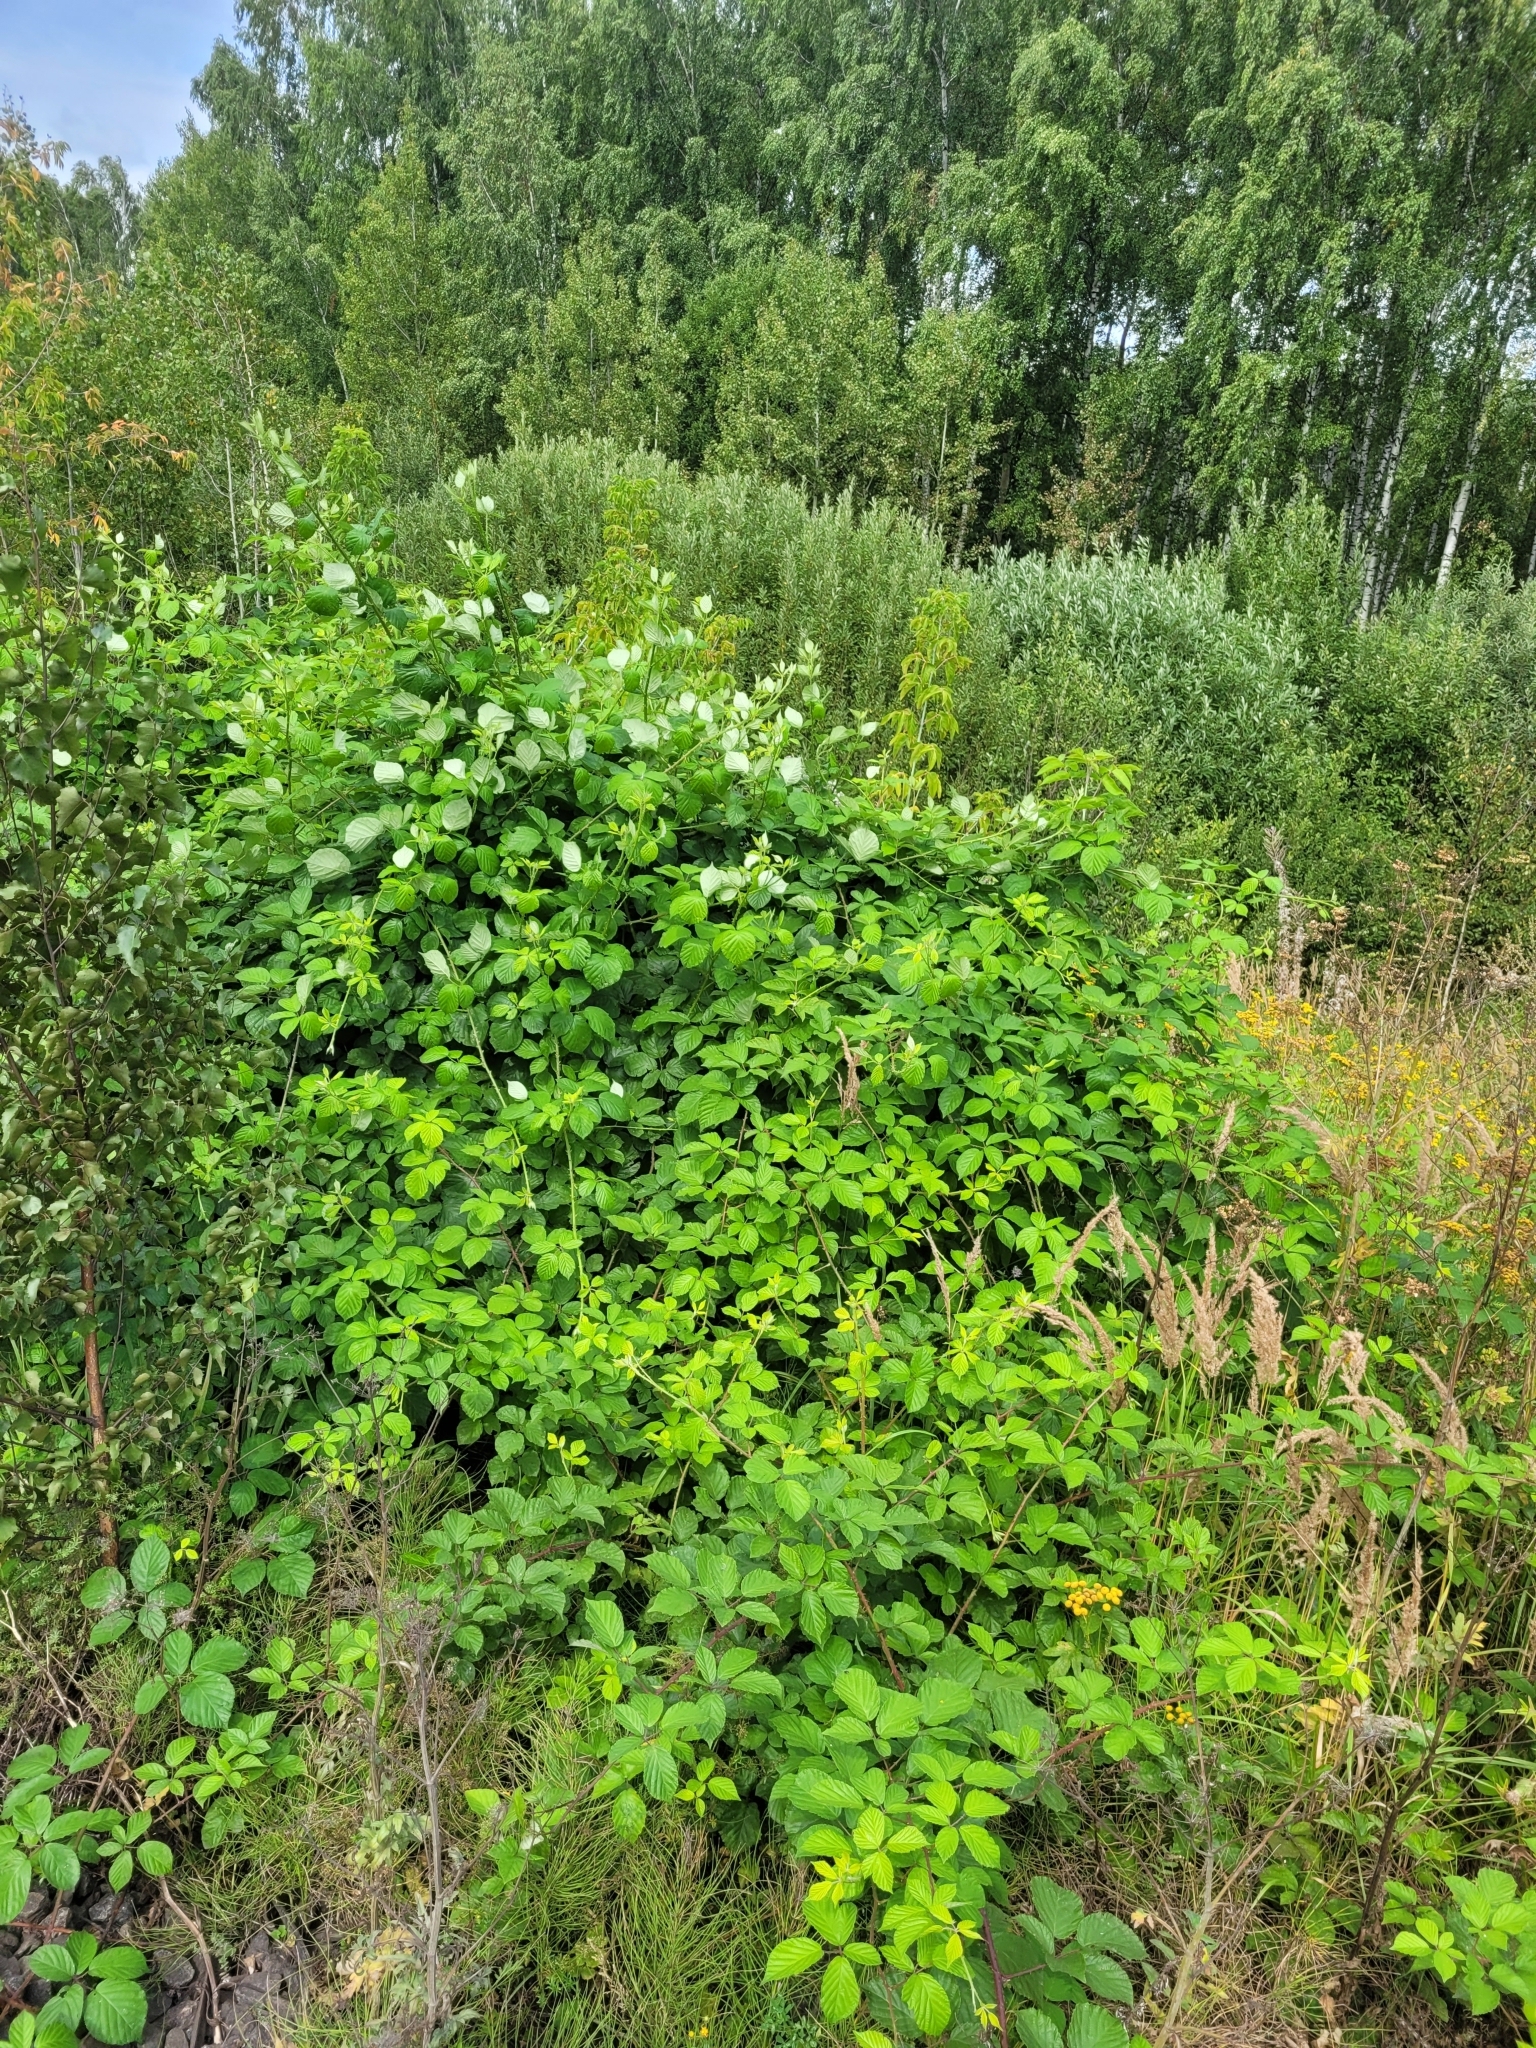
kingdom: Plantae
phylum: Tracheophyta
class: Magnoliopsida
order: Rosales
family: Rosaceae
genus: Rubus
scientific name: Rubus procerus
